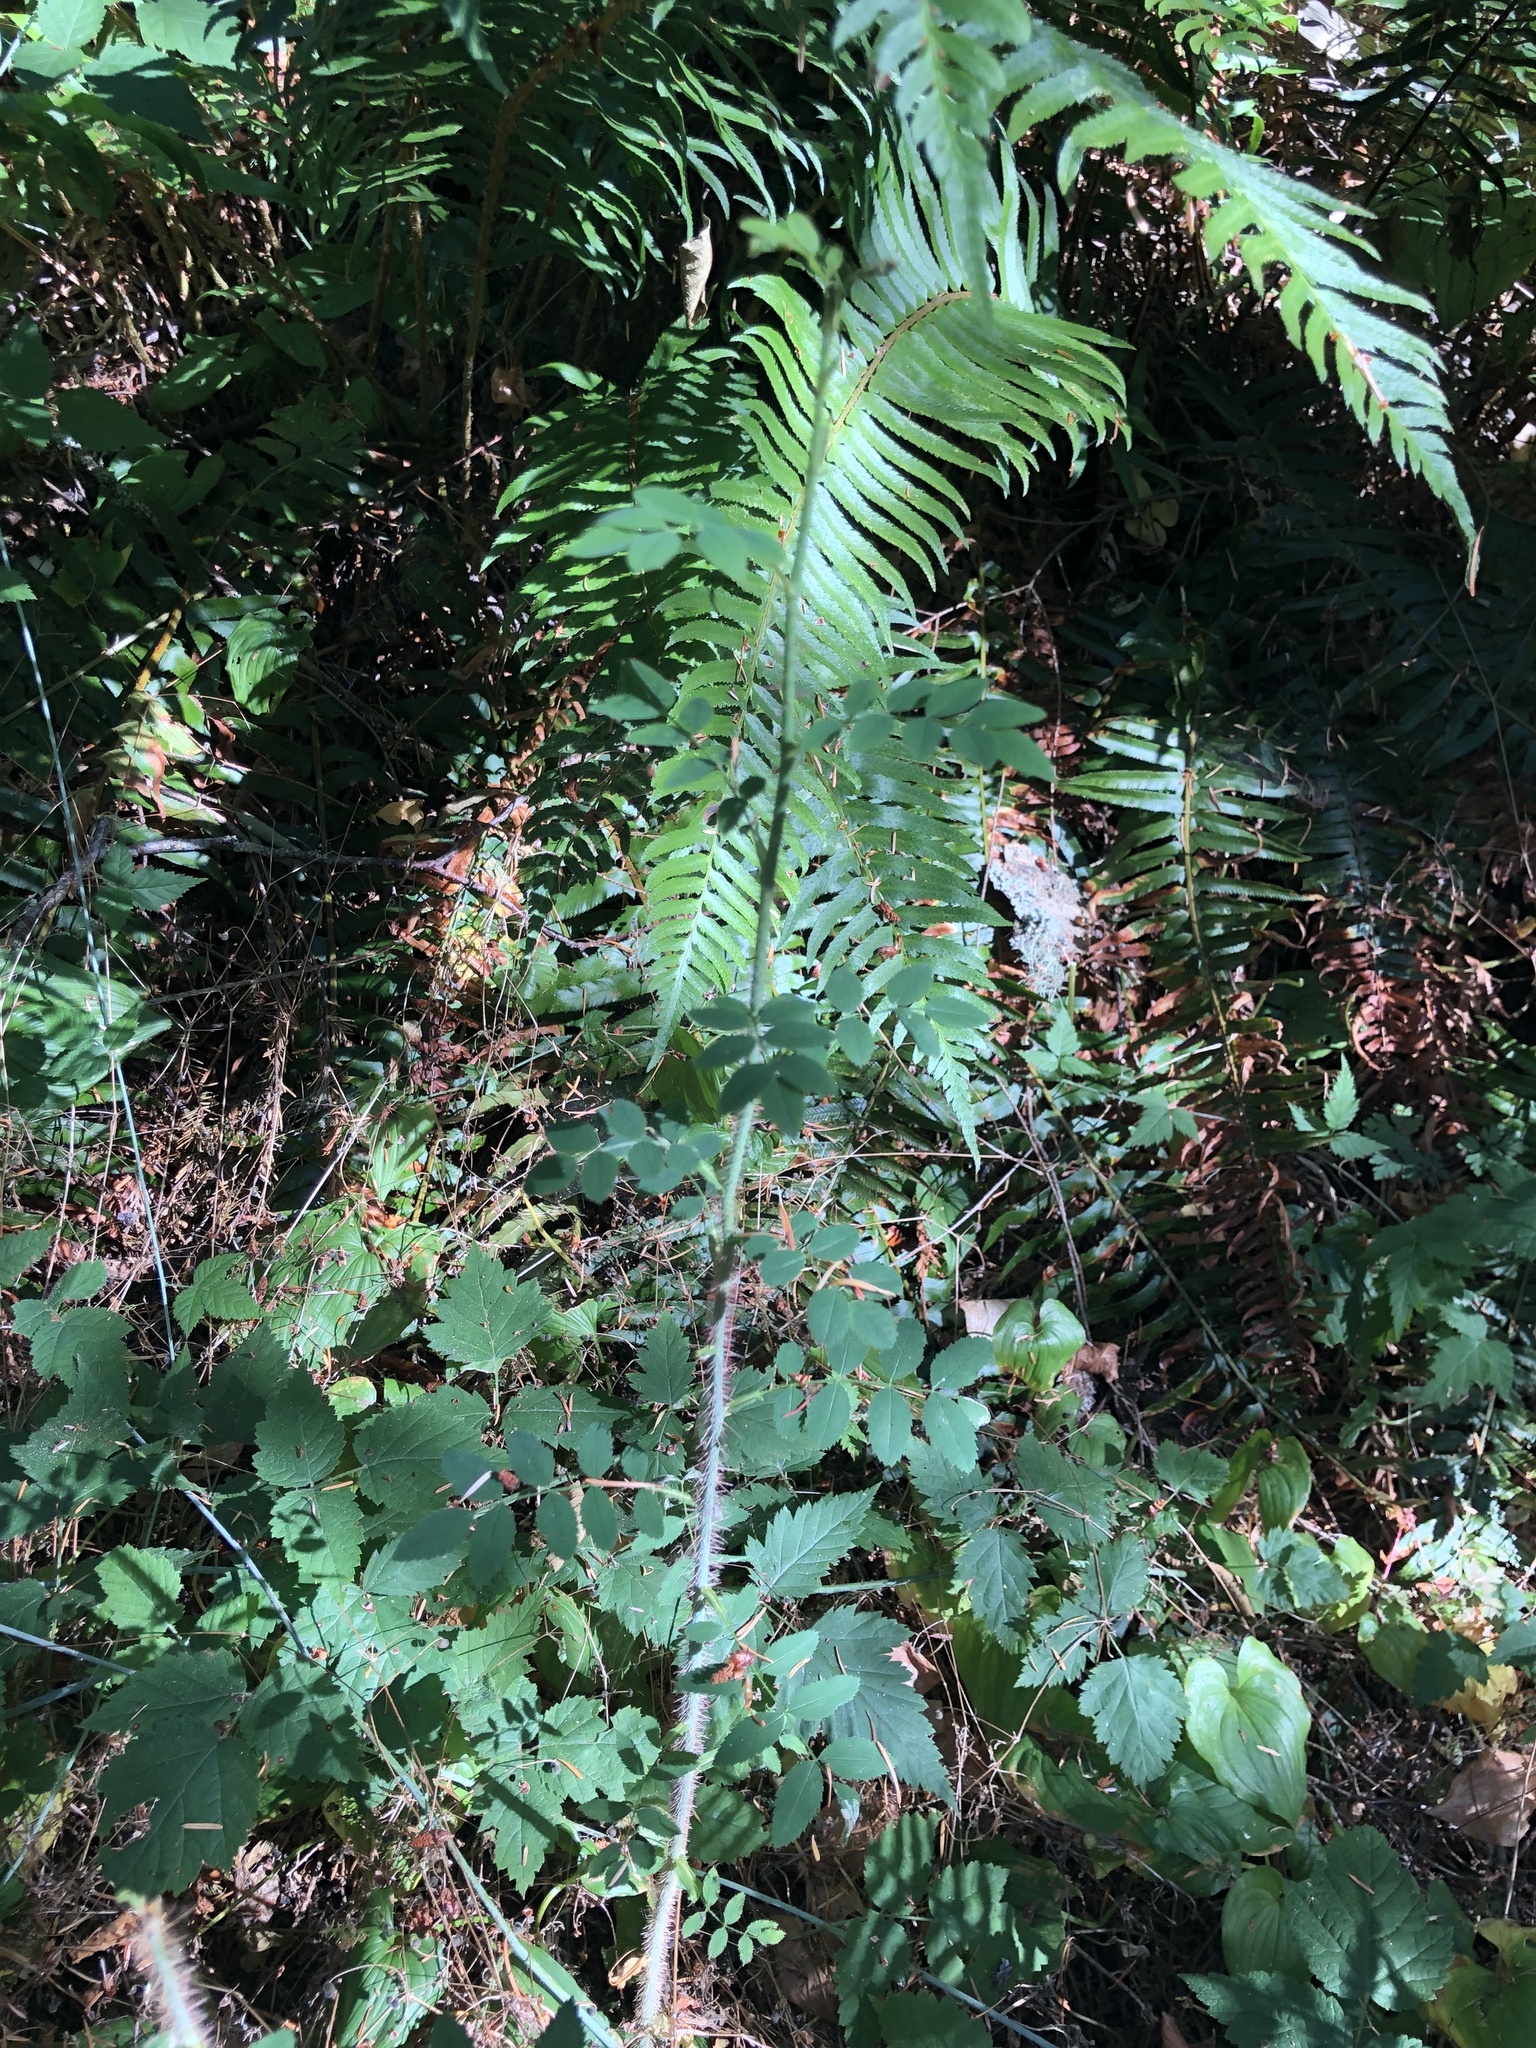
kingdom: Plantae
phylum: Tracheophyta
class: Magnoliopsida
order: Rosales
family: Rosaceae
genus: Rosa
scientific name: Rosa gymnocarpa
